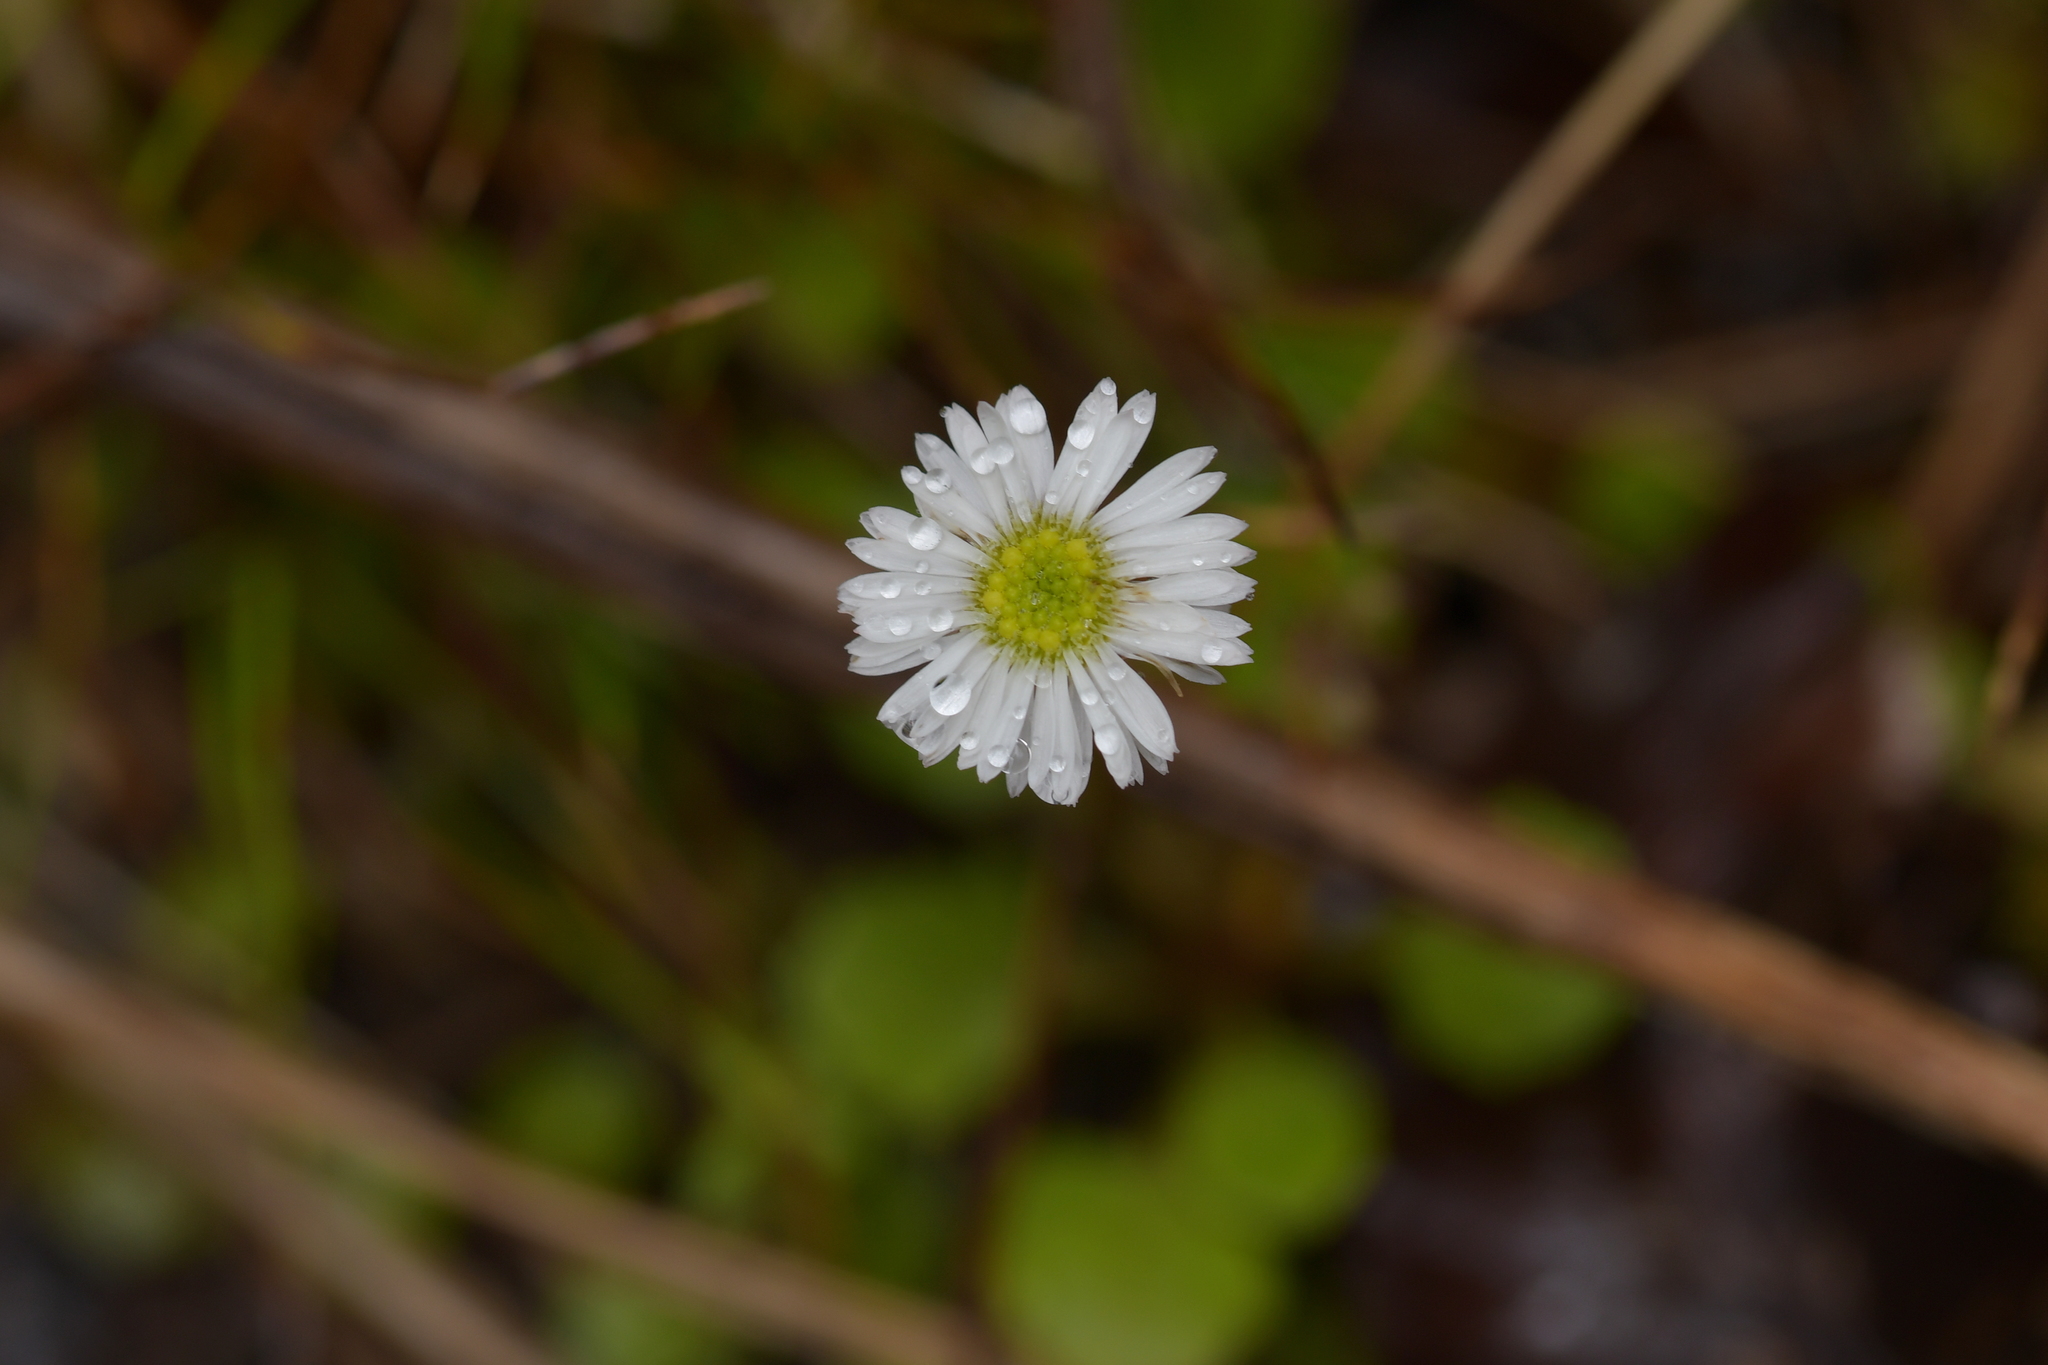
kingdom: Plantae
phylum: Tracheophyta
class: Magnoliopsida
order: Asterales
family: Asteraceae
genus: Lagenophora
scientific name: Lagenophora pumila
